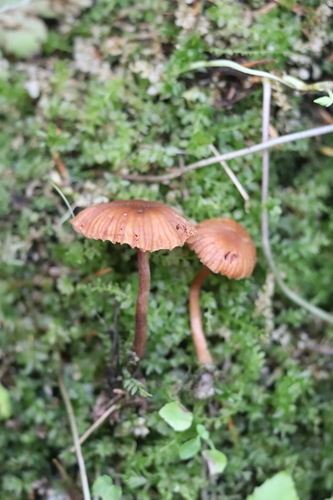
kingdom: Fungi
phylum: Basidiomycota
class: Agaricomycetes
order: Agaricales
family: Hydnangiaceae
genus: Laccaria
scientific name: Laccaria laccata
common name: Deceiver
